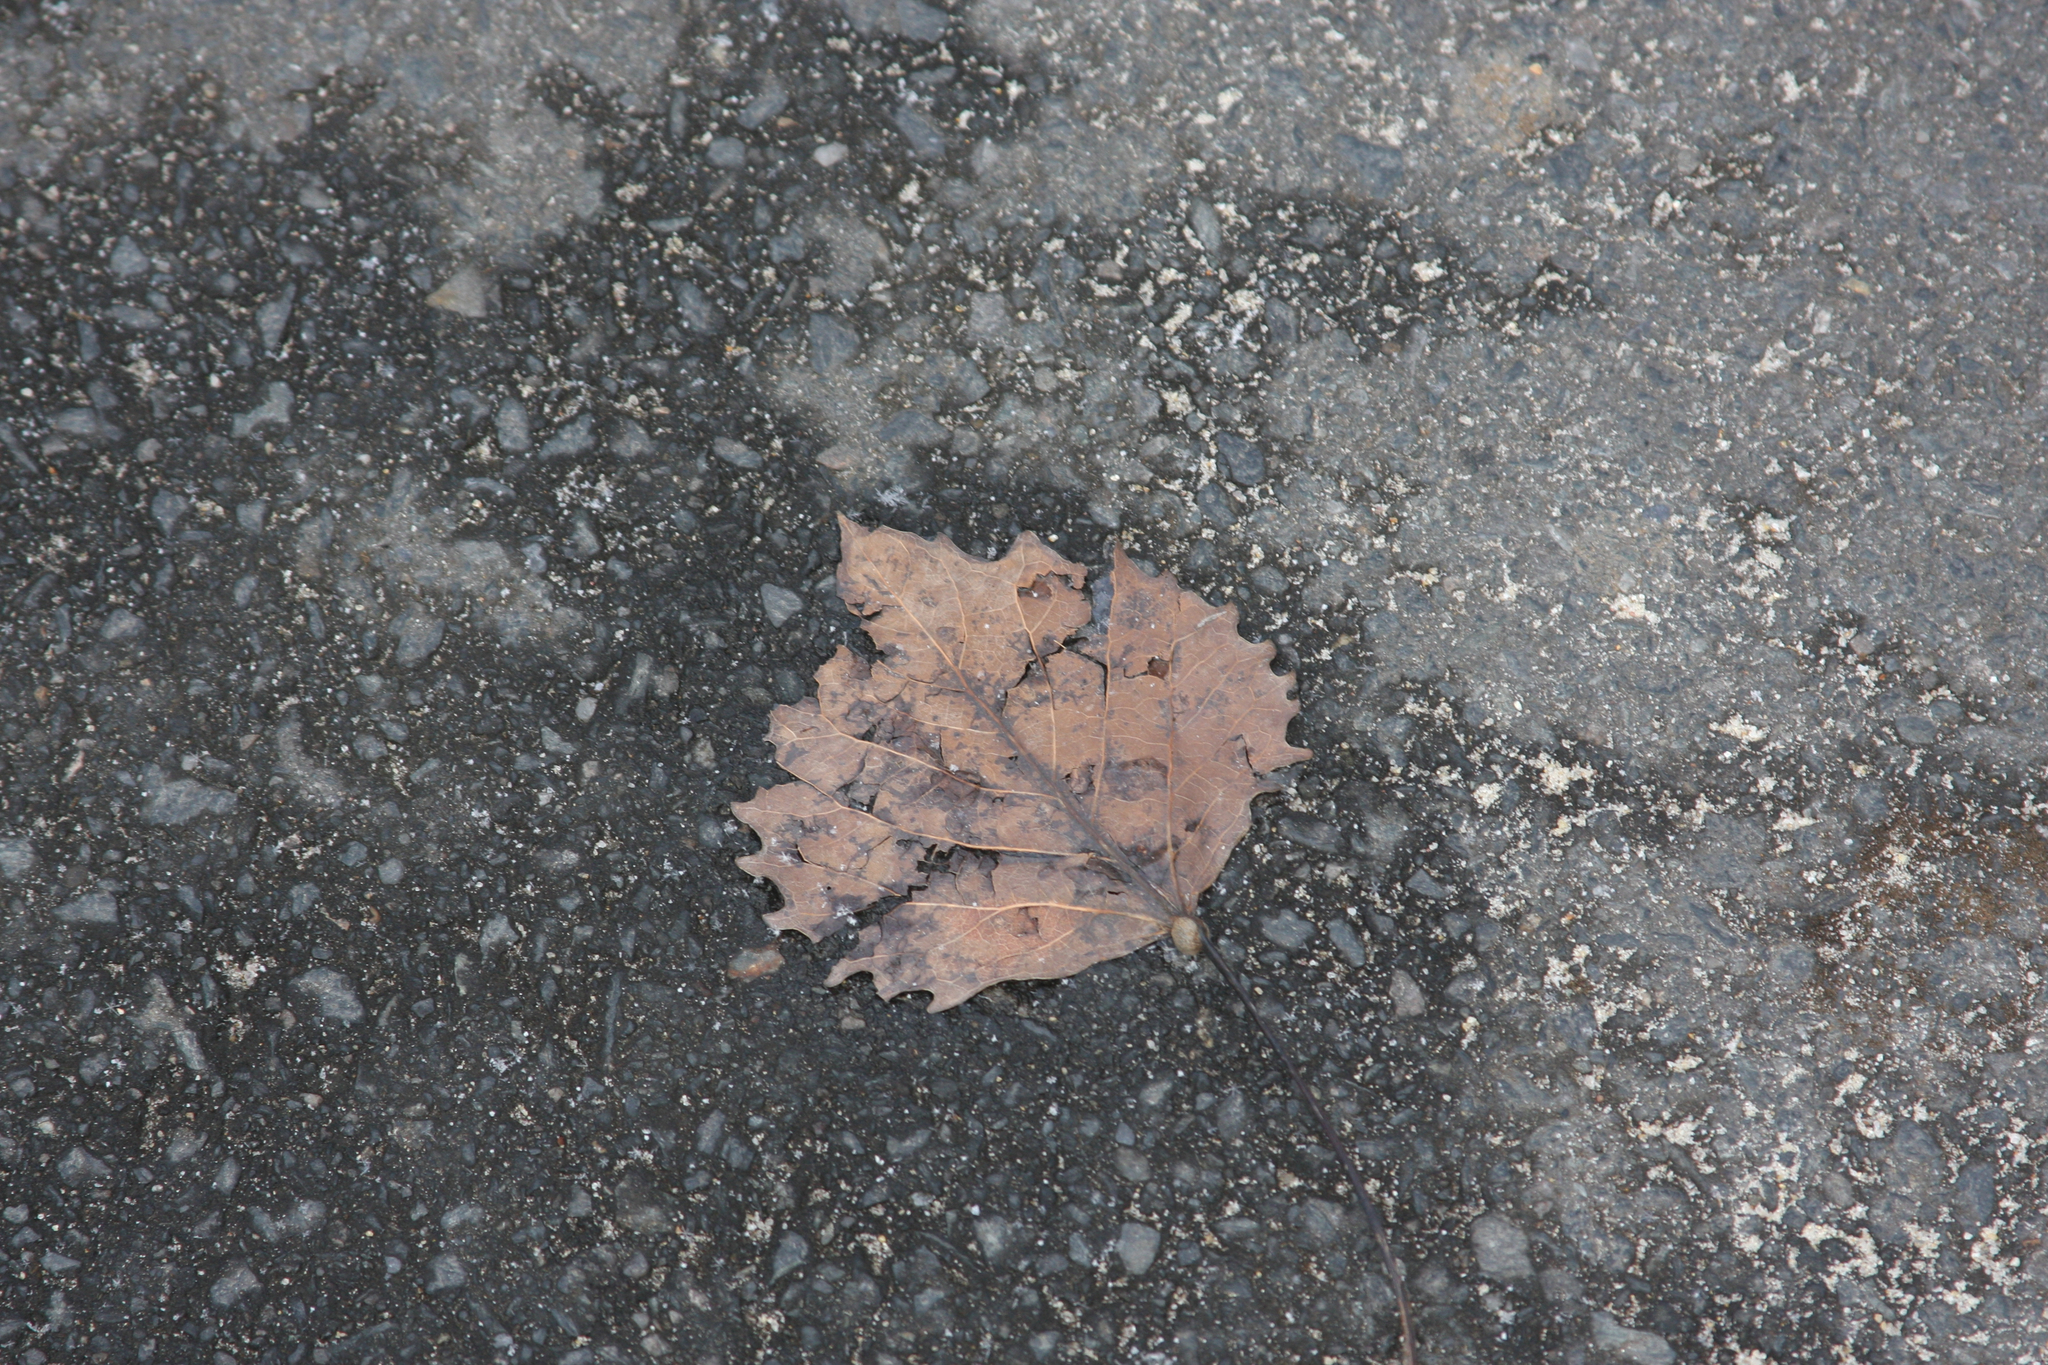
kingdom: Plantae
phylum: Tracheophyta
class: Magnoliopsida
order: Malpighiales
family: Salicaceae
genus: Populus
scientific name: Populus grandidentata
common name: Bigtooth aspen
